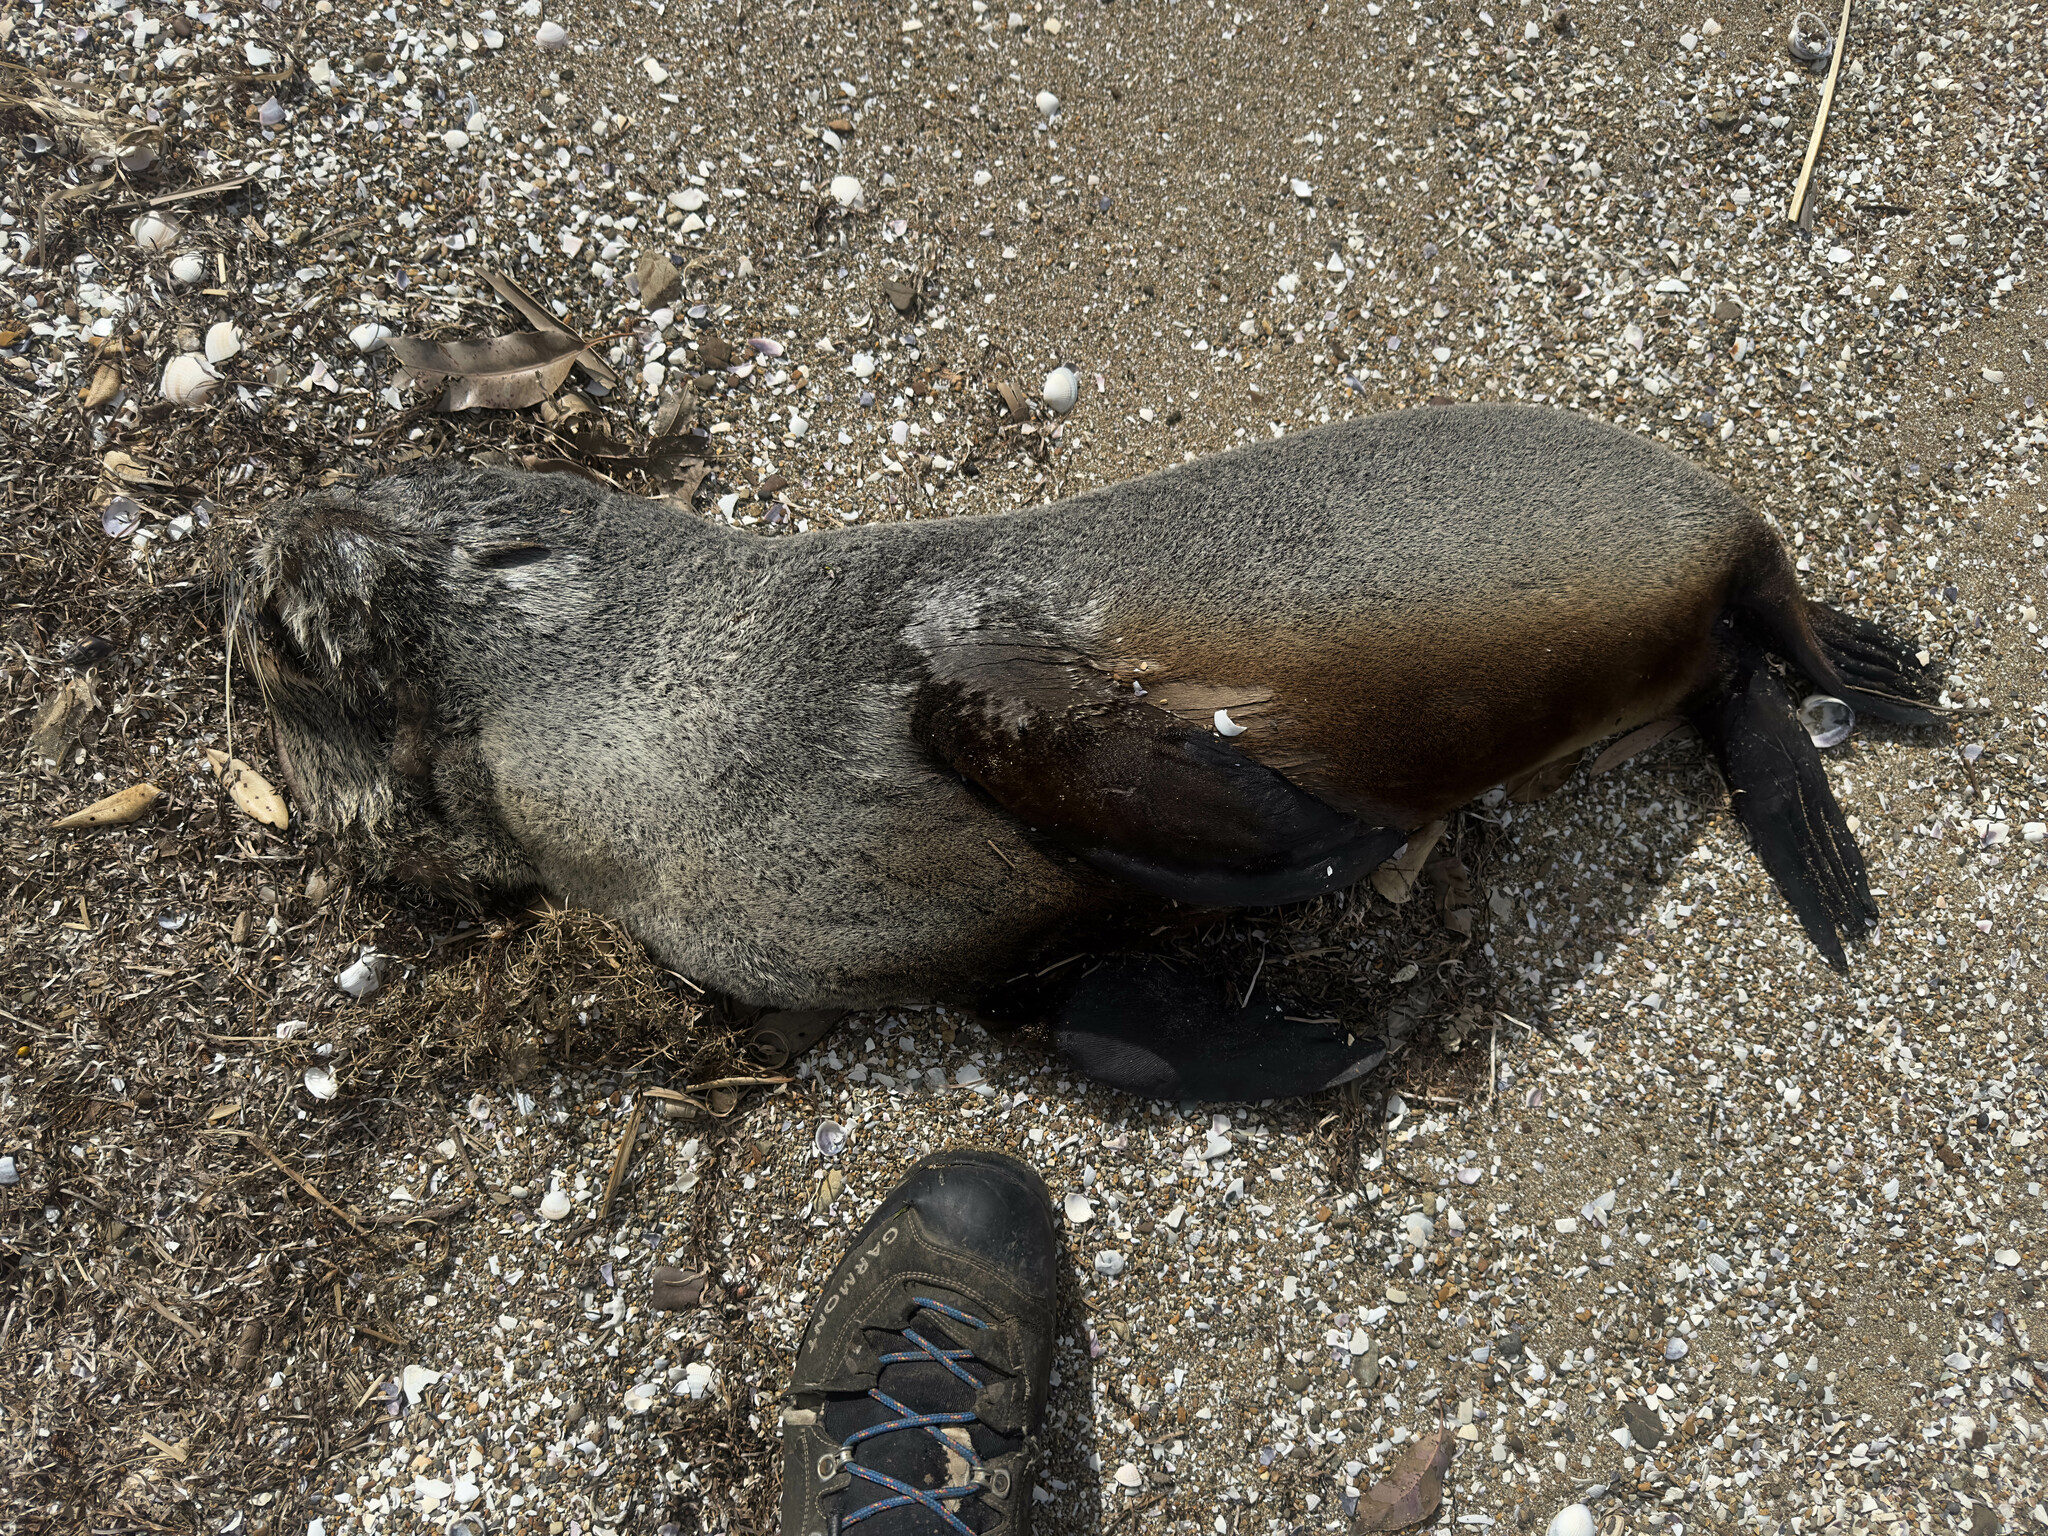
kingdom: Animalia
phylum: Chordata
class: Mammalia
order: Carnivora
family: Otariidae
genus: Arctocephalus
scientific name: Arctocephalus forsteri
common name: New zealand fur seal
